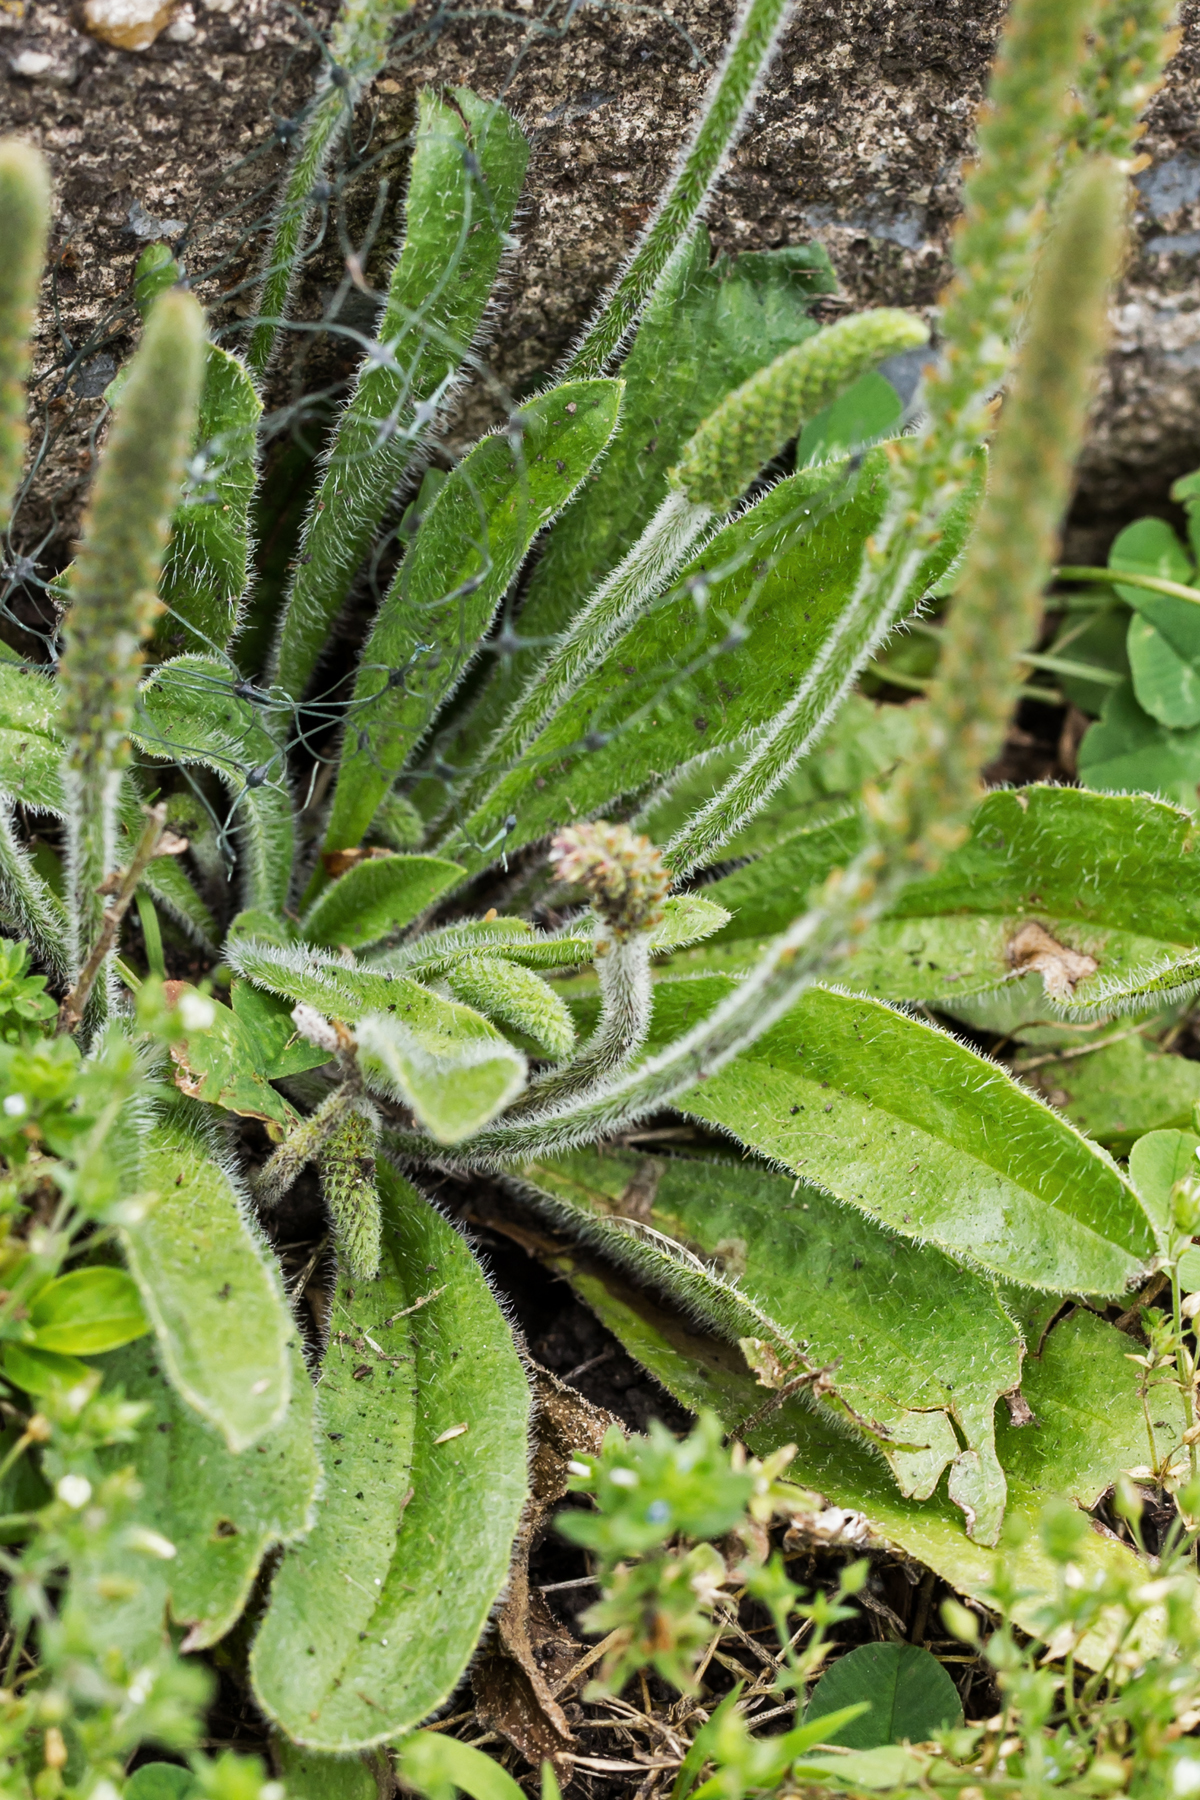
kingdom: Plantae
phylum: Tracheophyta
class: Magnoliopsida
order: Lamiales
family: Plantaginaceae
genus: Plantago
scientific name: Plantago virginica
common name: Hoary plantain
